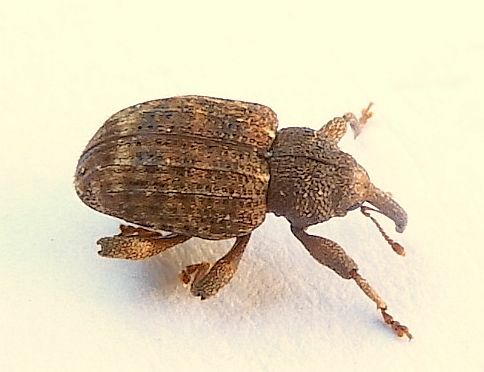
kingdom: Animalia
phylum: Arthropoda
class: Insecta
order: Coleoptera
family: Curculionidae
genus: Conotrachelus
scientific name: Conotrachelus posticatus
